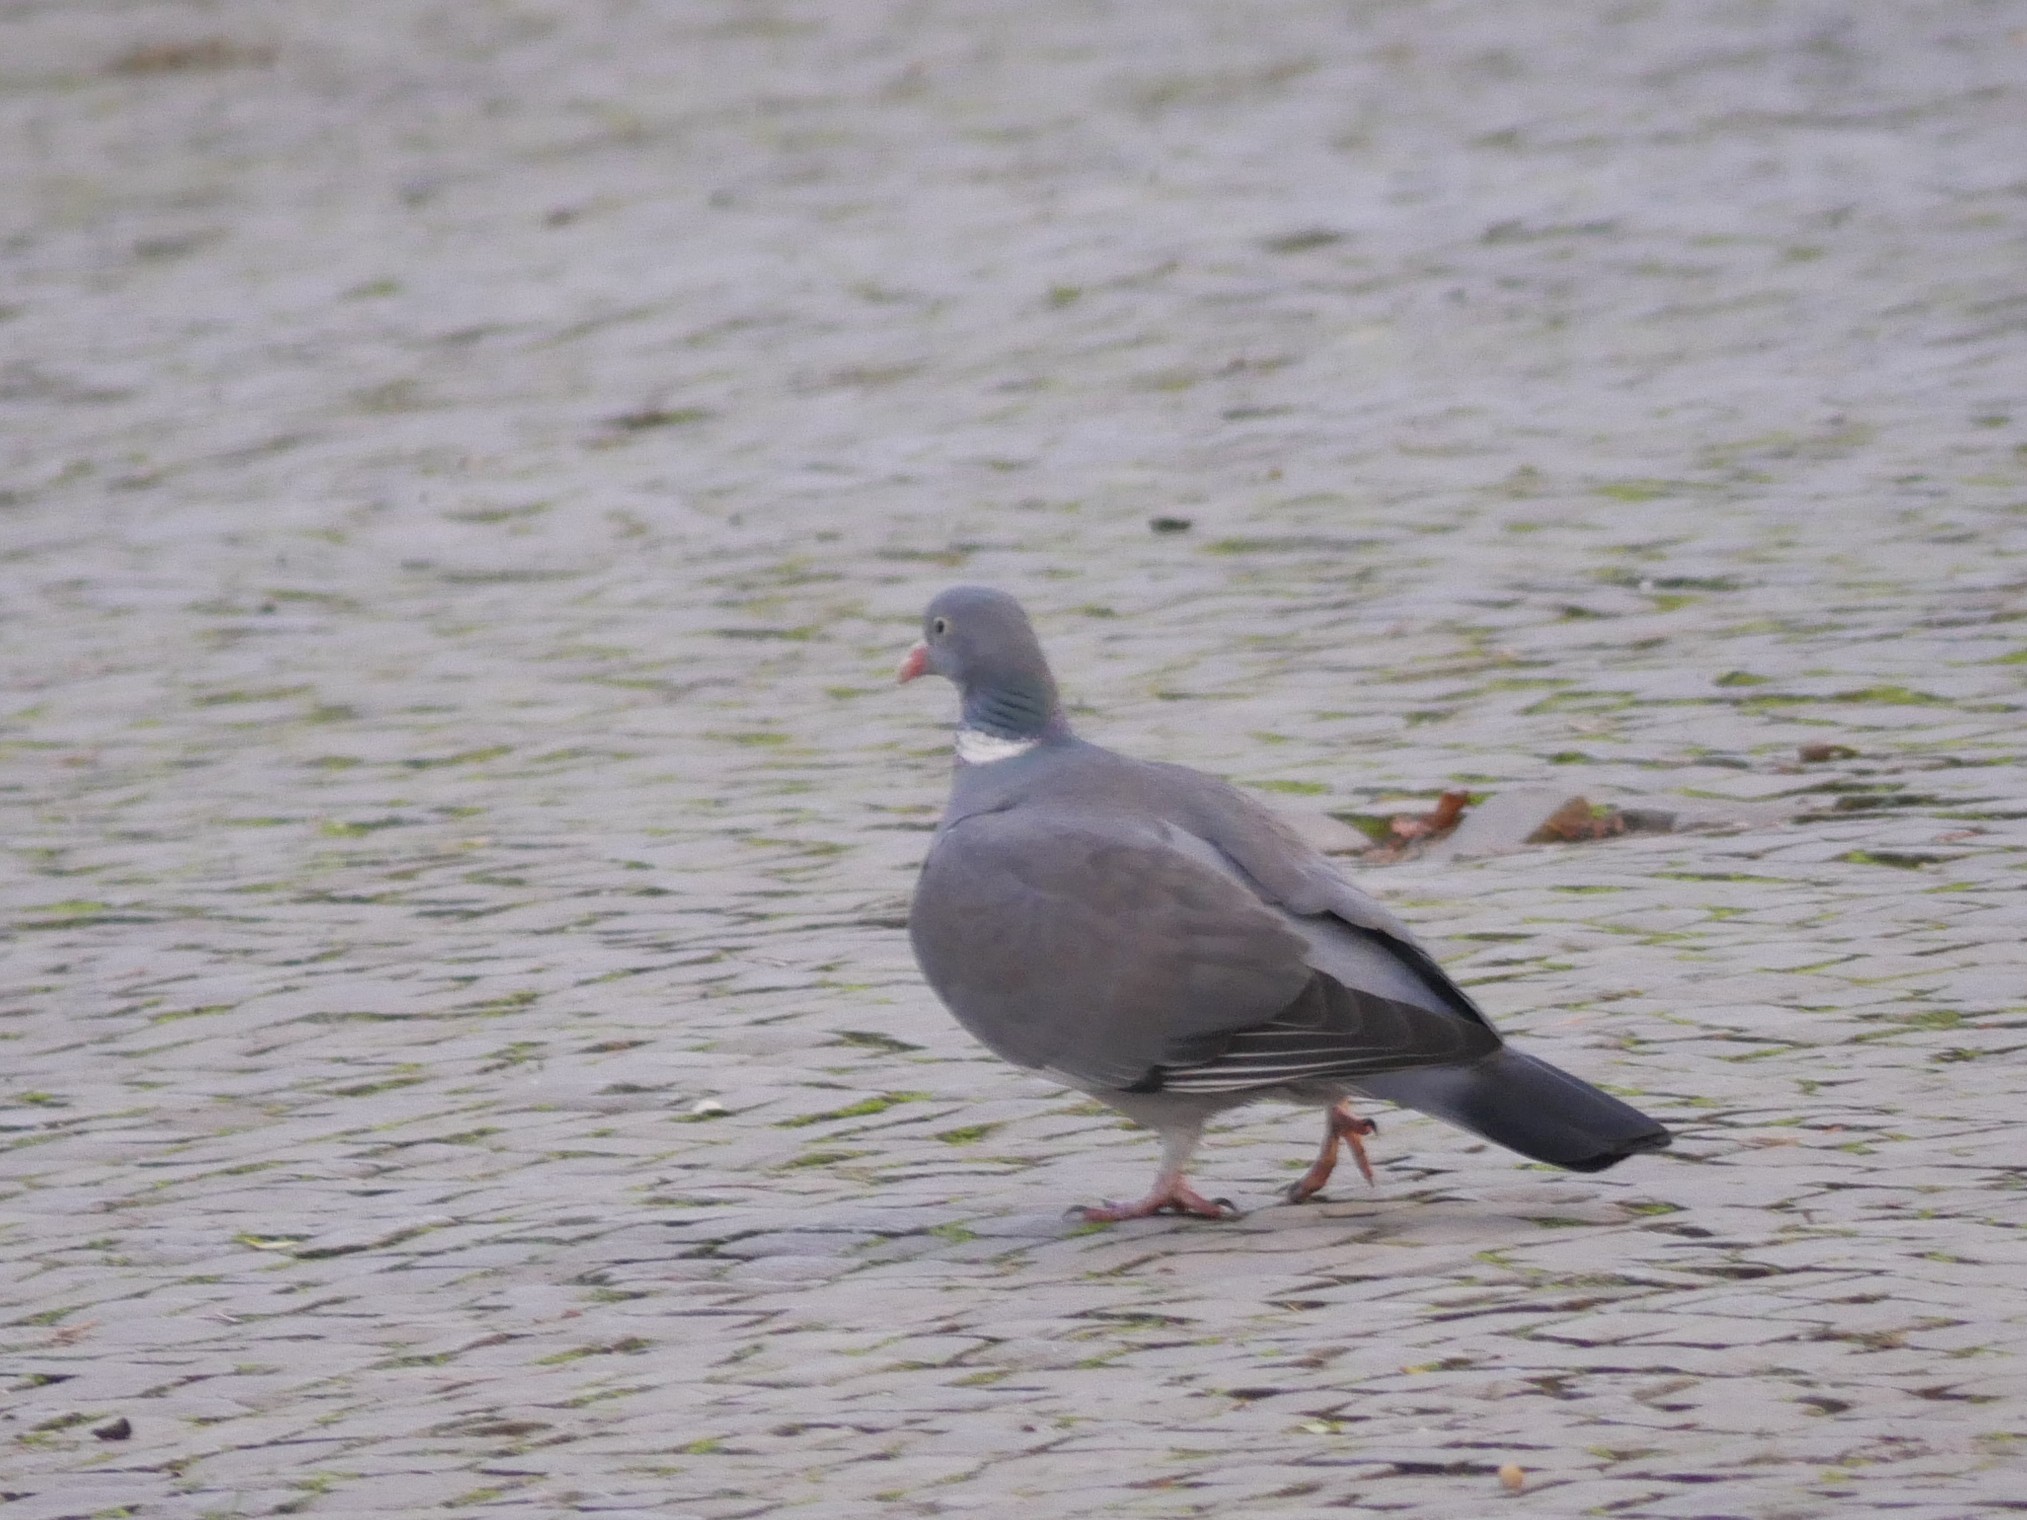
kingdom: Animalia
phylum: Chordata
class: Aves
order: Columbiformes
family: Columbidae
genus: Columba
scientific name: Columba palumbus
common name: Common wood pigeon
